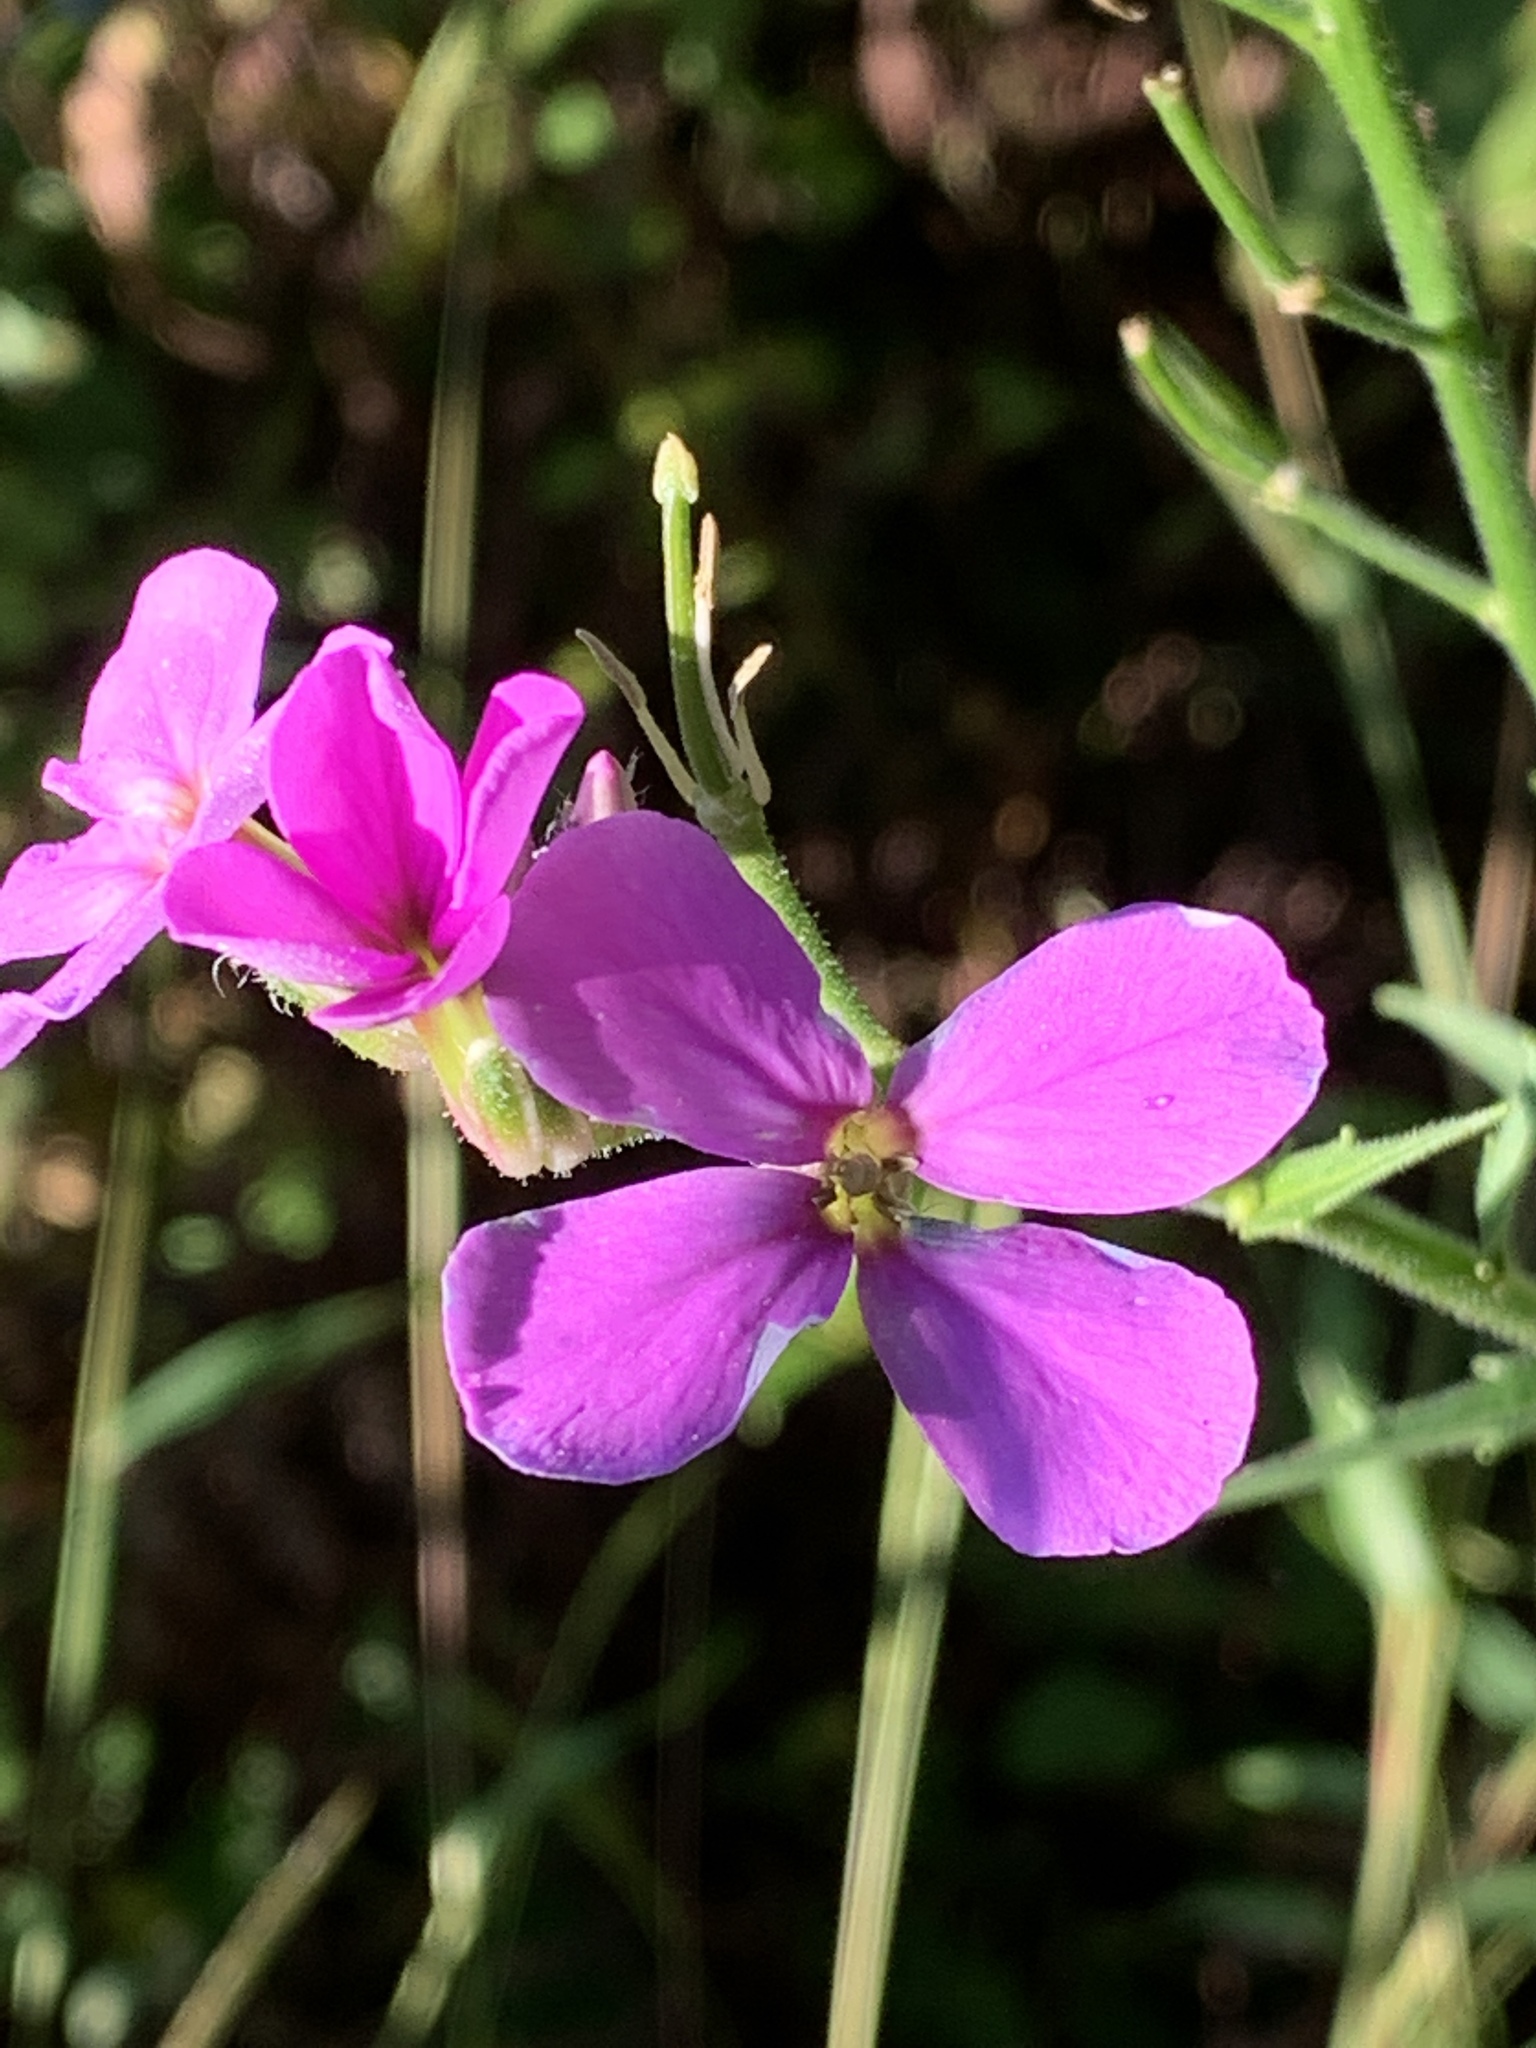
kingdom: Plantae
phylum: Tracheophyta
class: Magnoliopsida
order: Brassicales
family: Brassicaceae
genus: Hesperis
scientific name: Hesperis matronalis
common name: Dame's-violet
